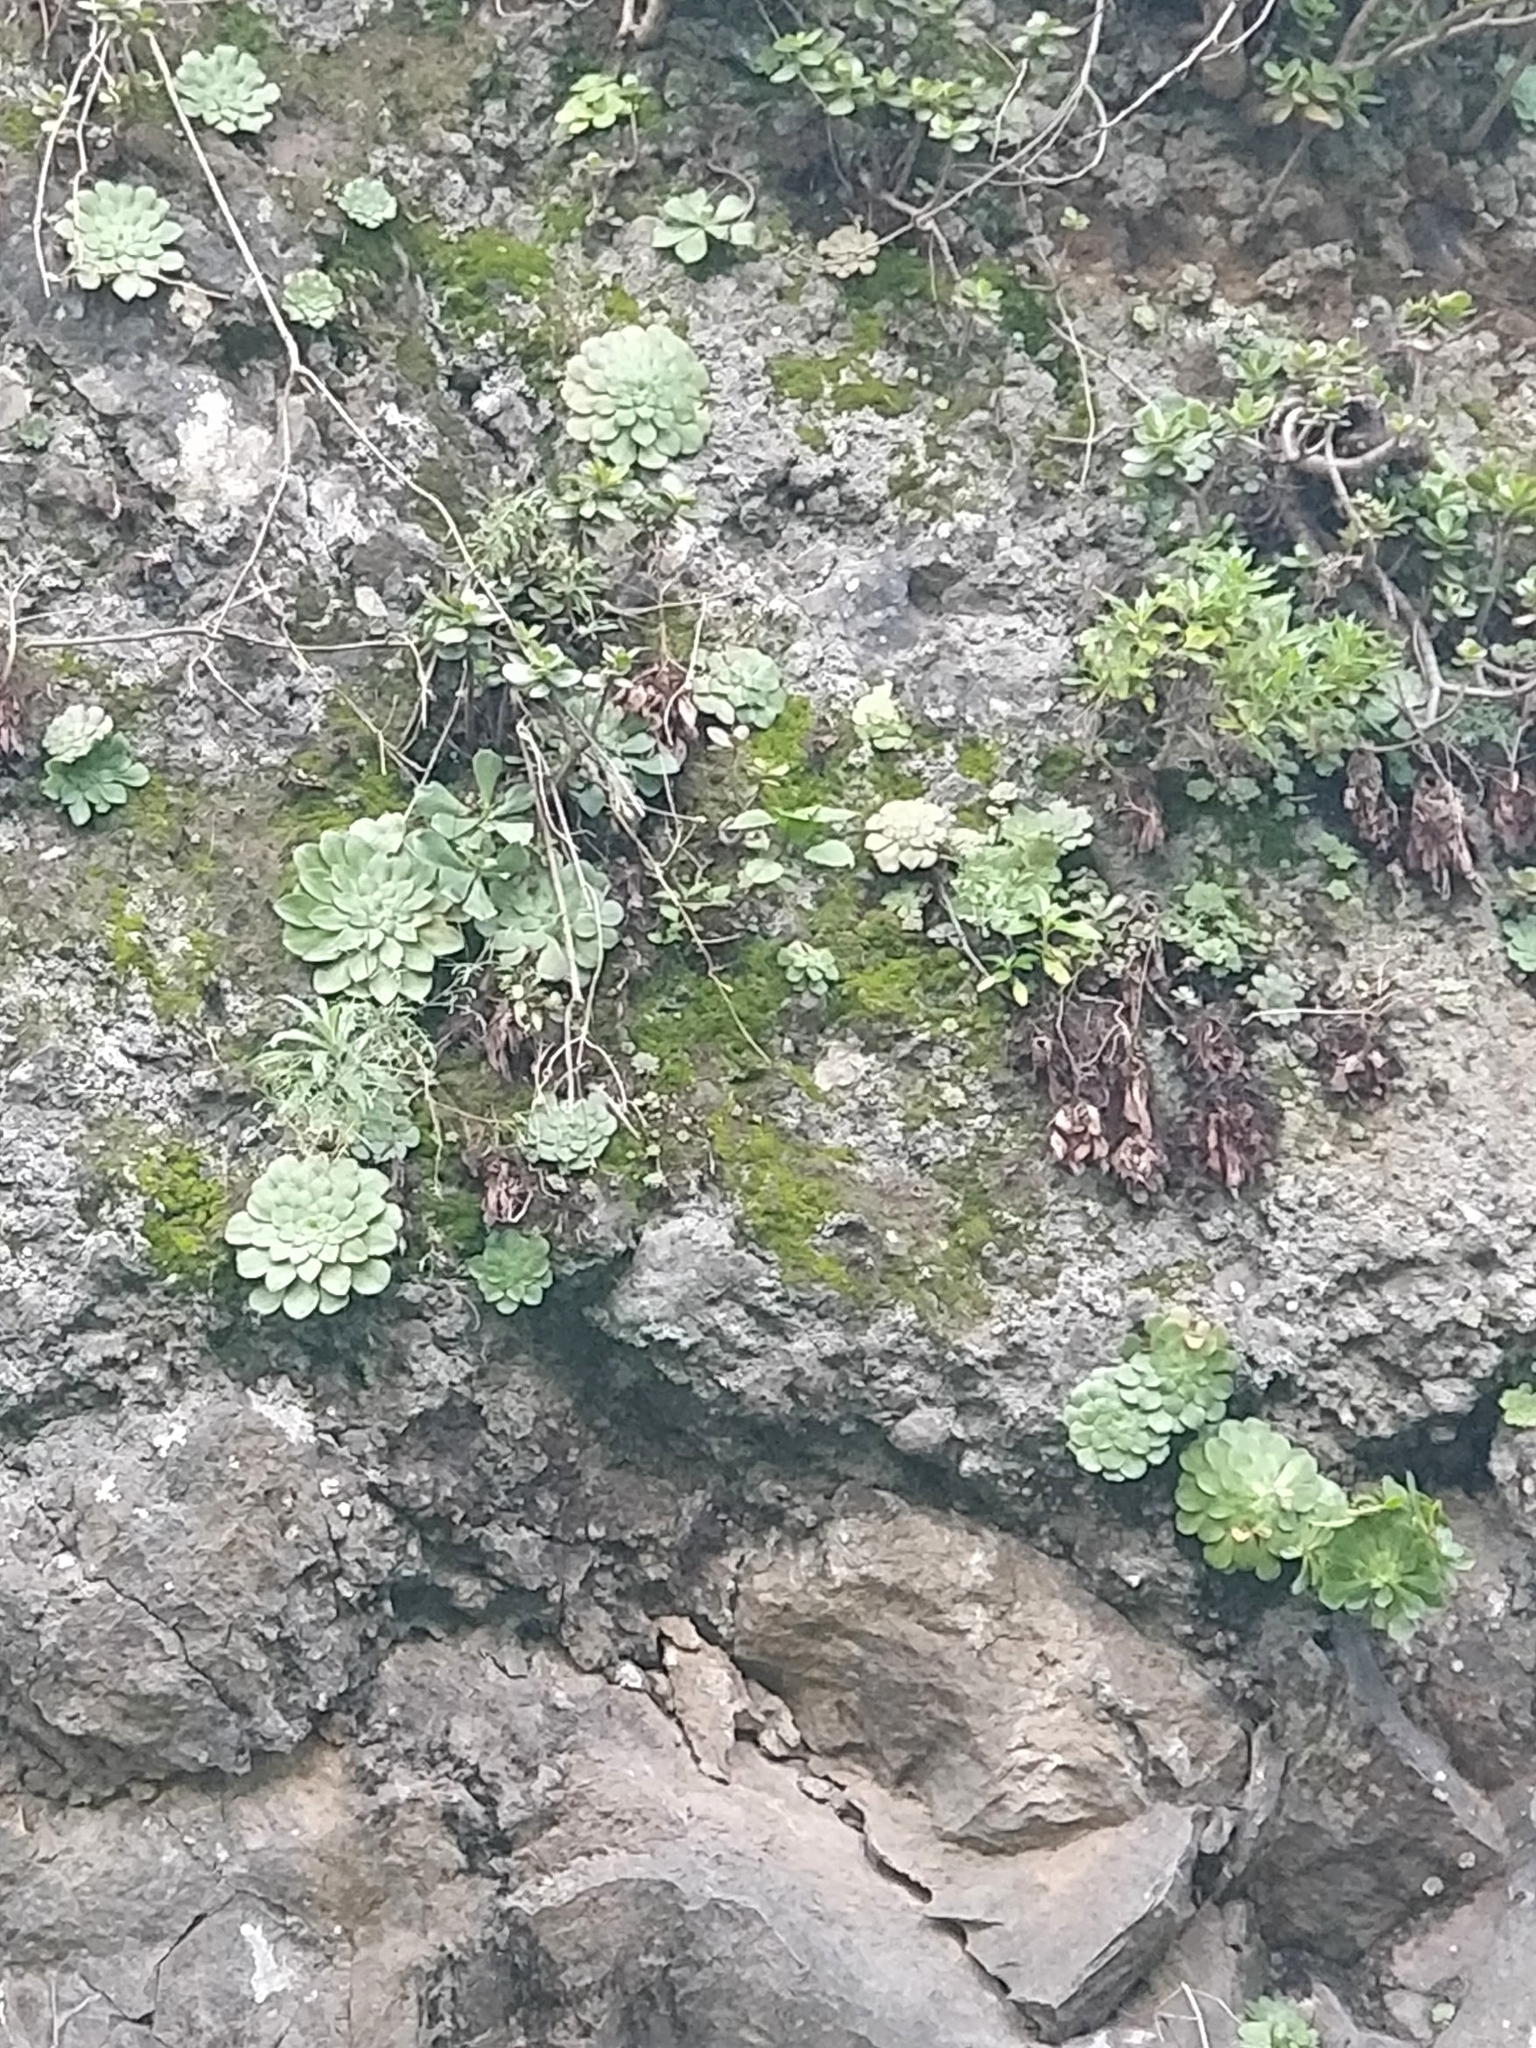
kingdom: Plantae
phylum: Tracheophyta
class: Magnoliopsida
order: Saxifragales
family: Crassulaceae
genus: Aeonium
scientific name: Aeonium glandulosum
